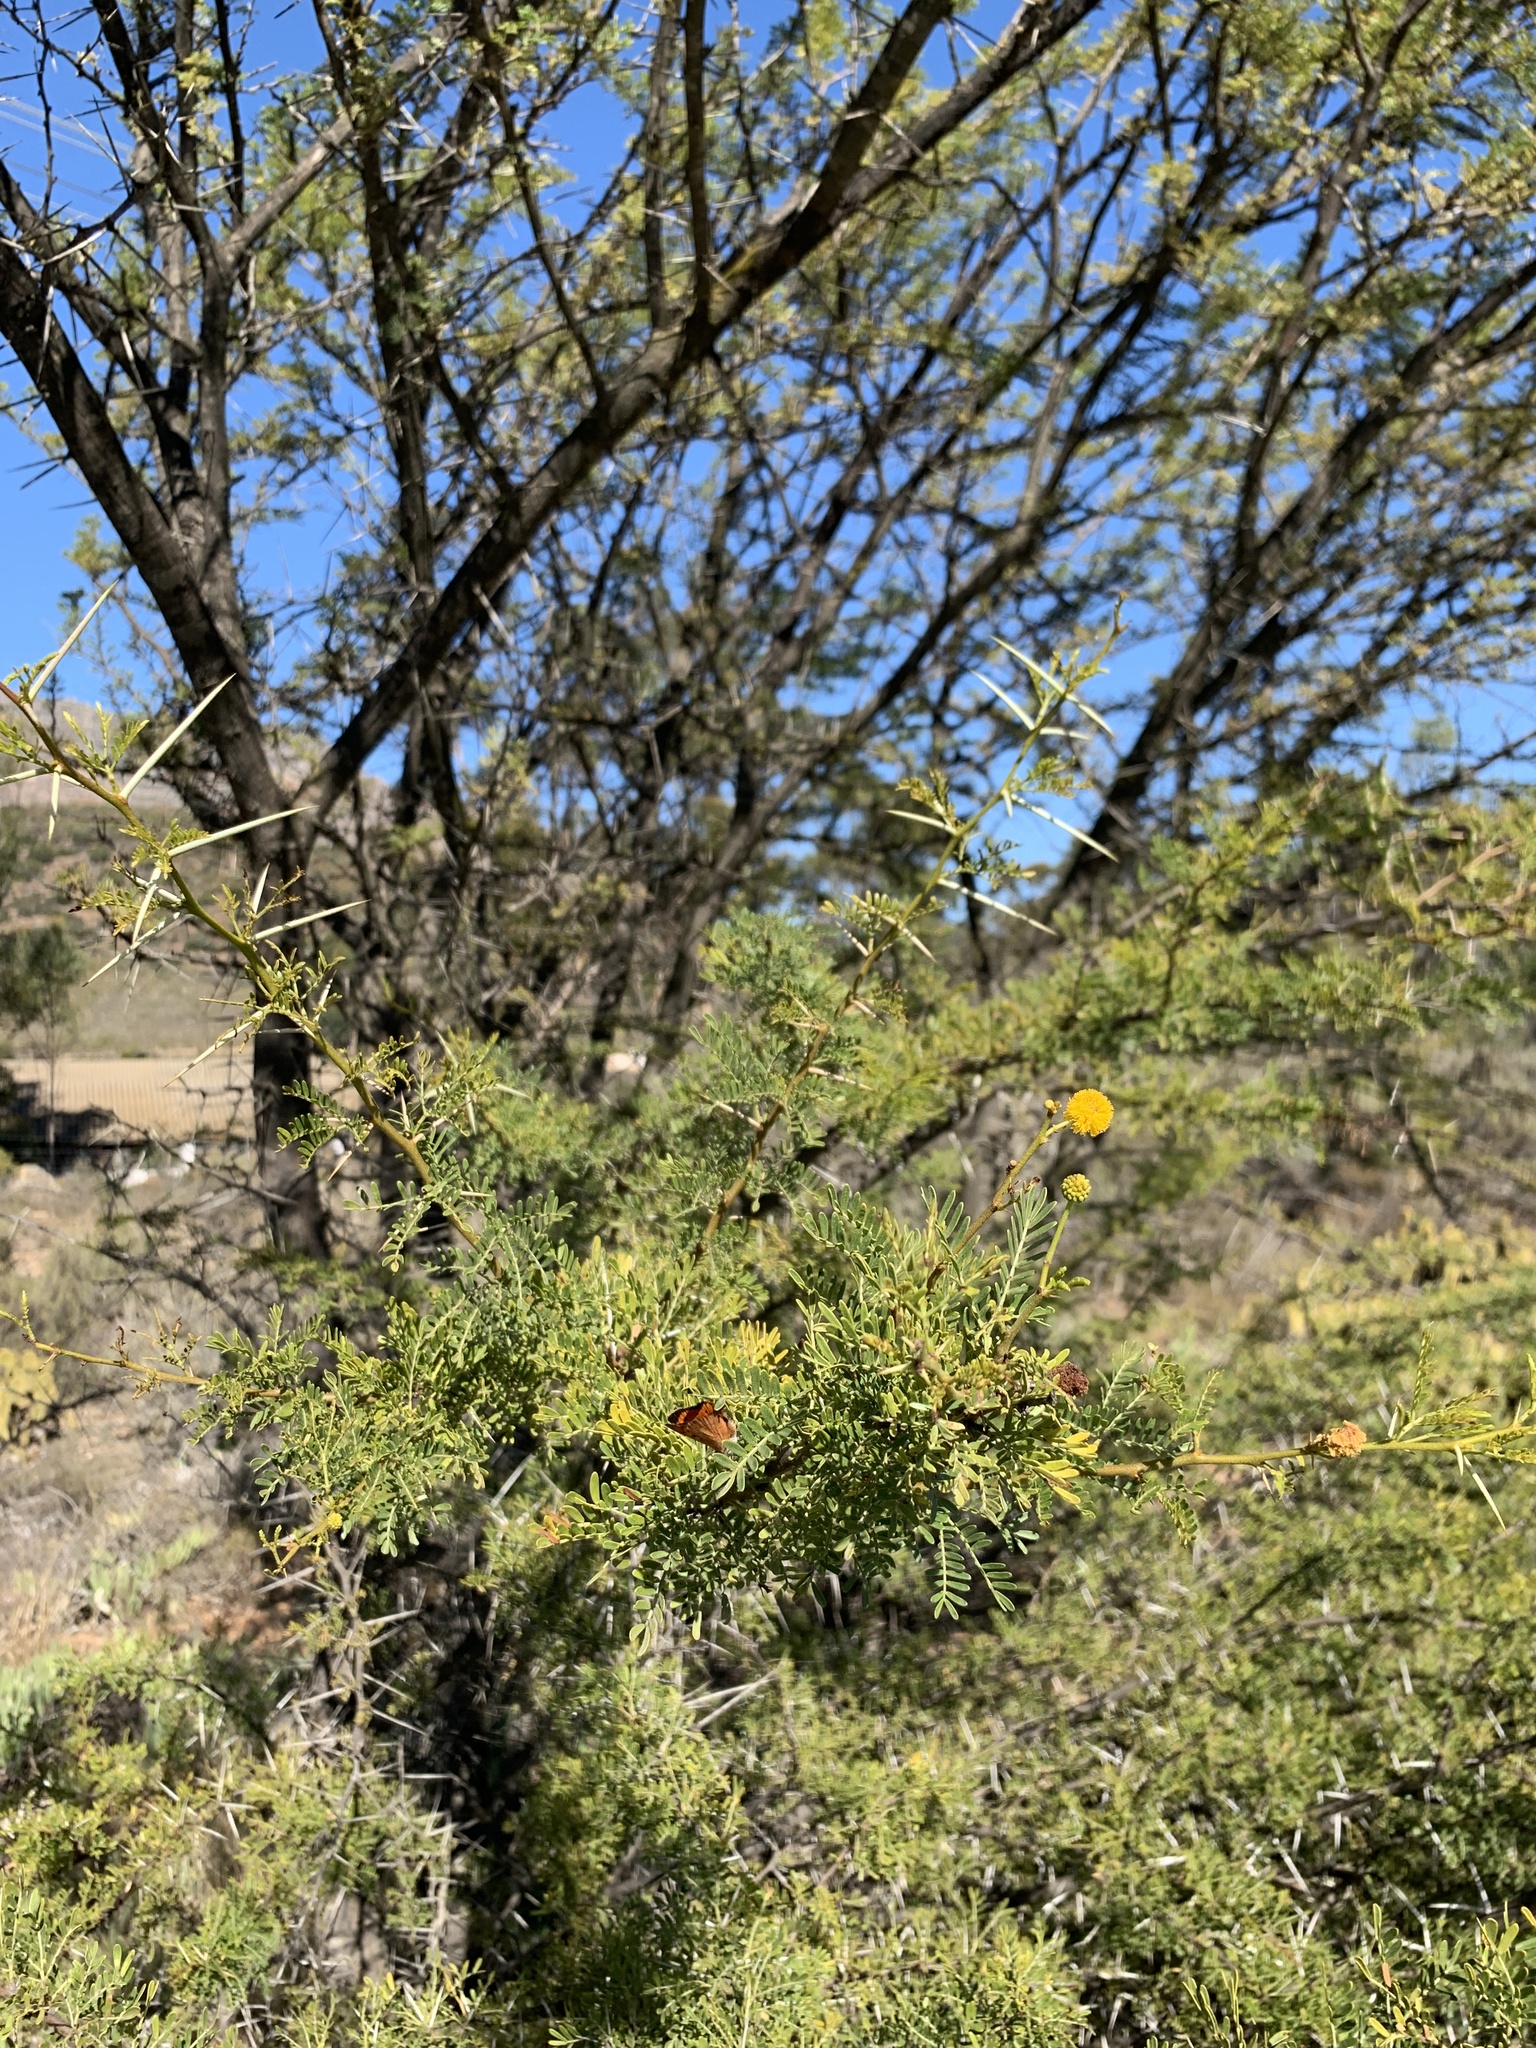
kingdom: Plantae
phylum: Tracheophyta
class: Magnoliopsida
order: Fabales
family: Fabaceae
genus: Vachellia
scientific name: Vachellia karroo
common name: Sweet thorn
